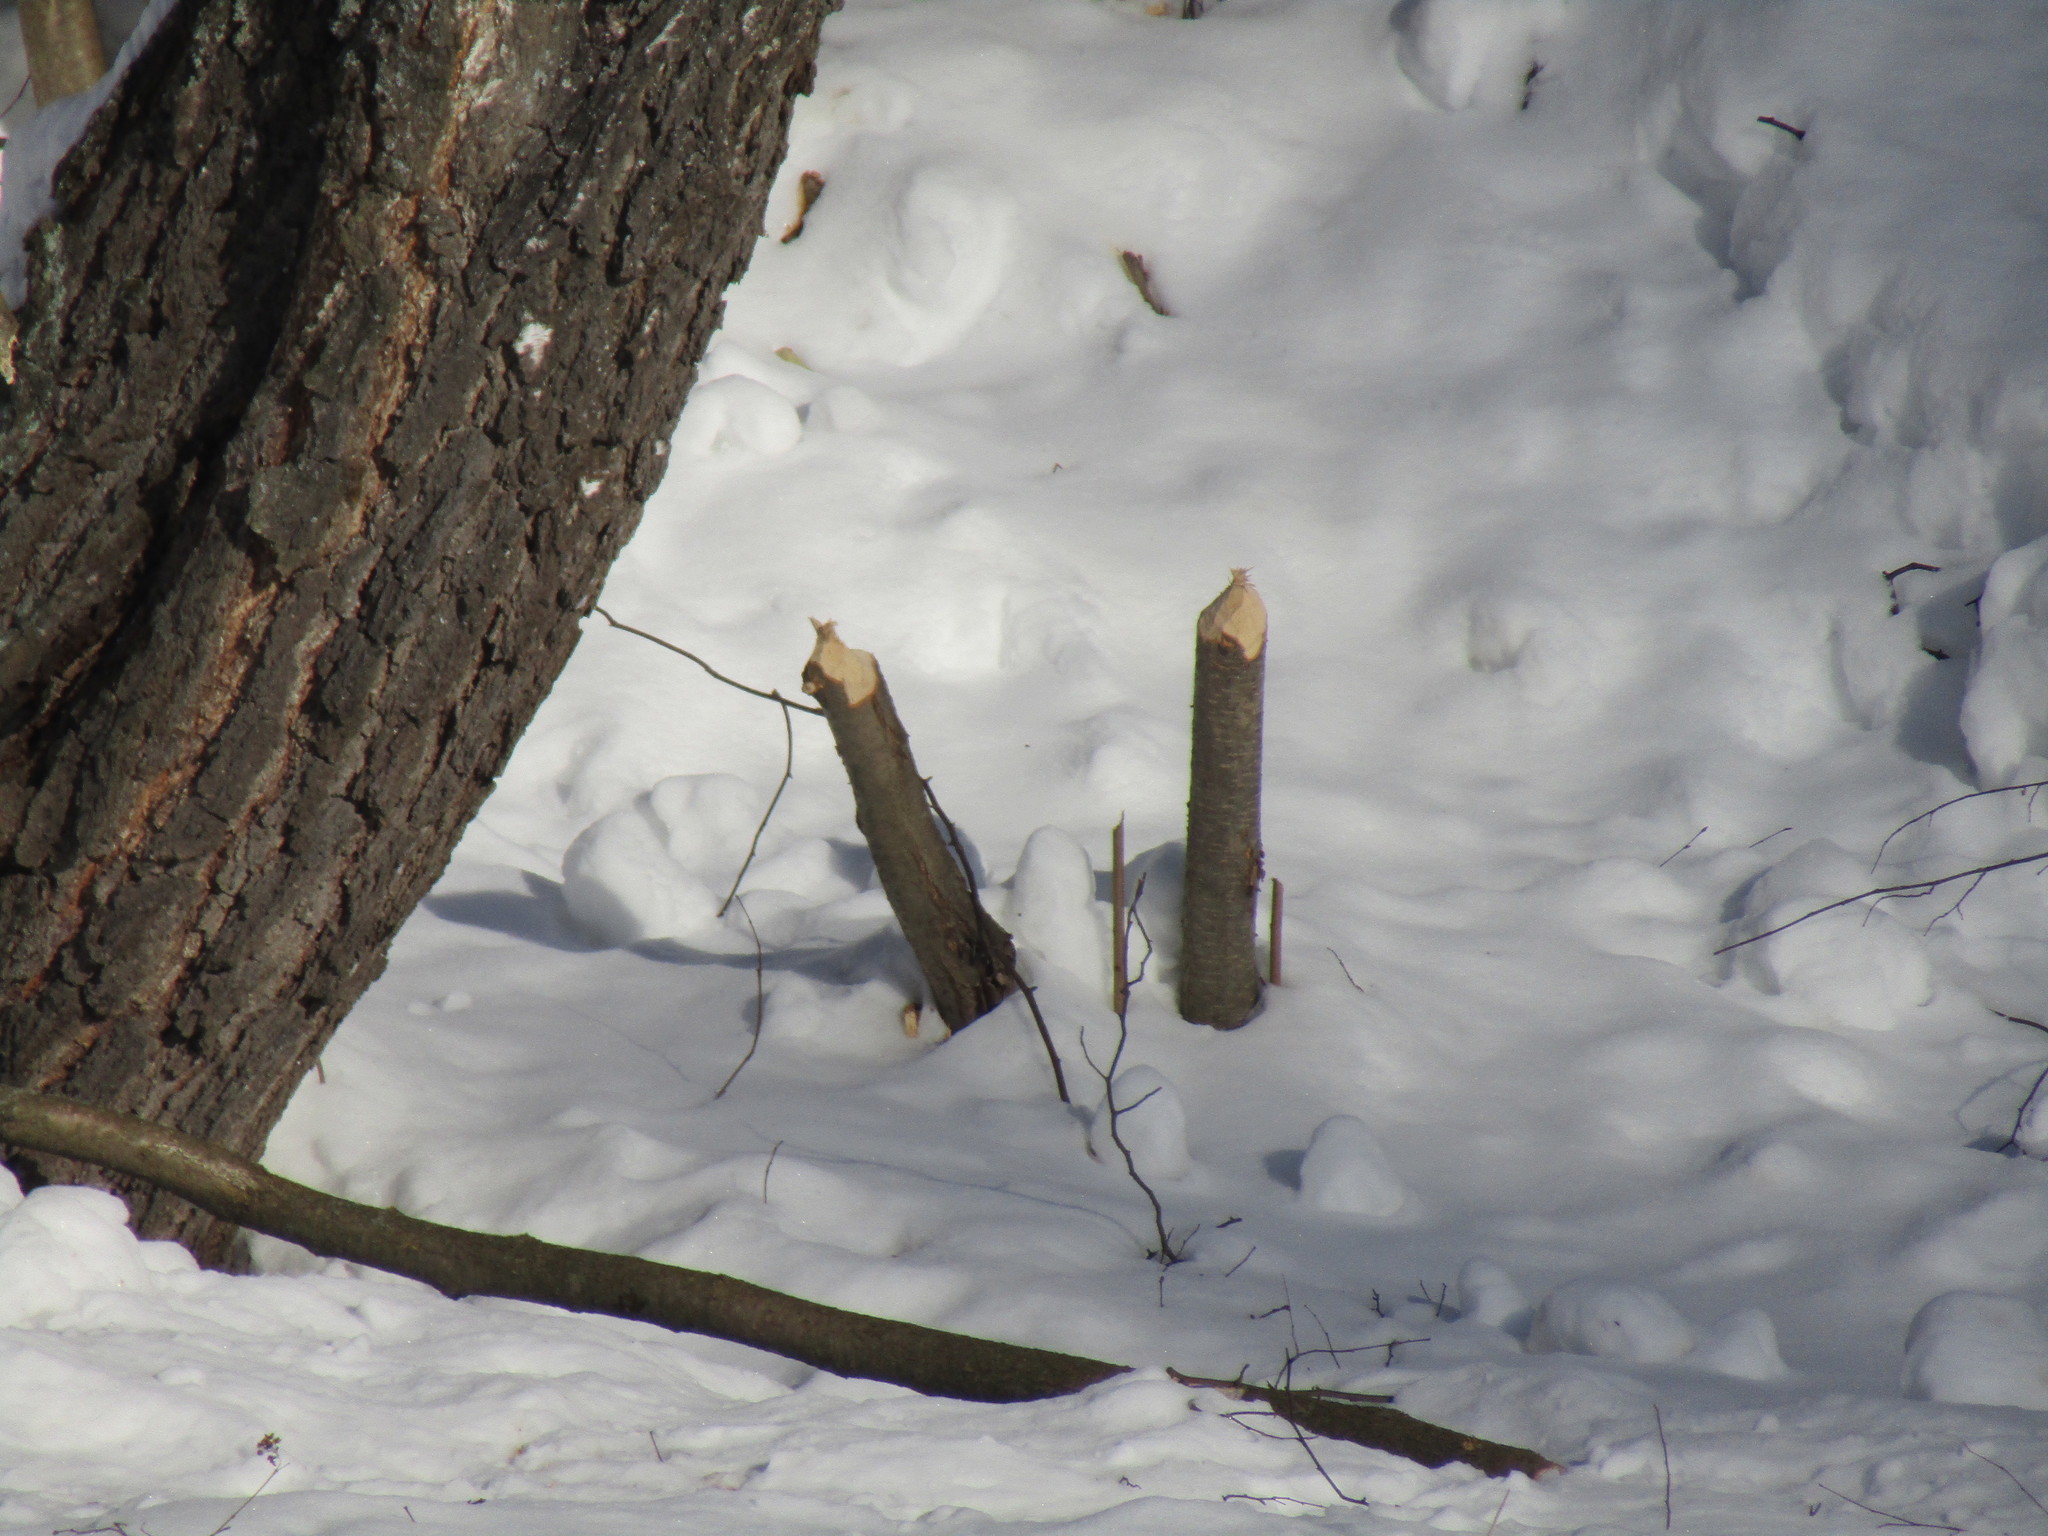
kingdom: Animalia
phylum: Chordata
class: Mammalia
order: Rodentia
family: Castoridae
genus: Castor
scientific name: Castor fiber
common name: Eurasian beaver
